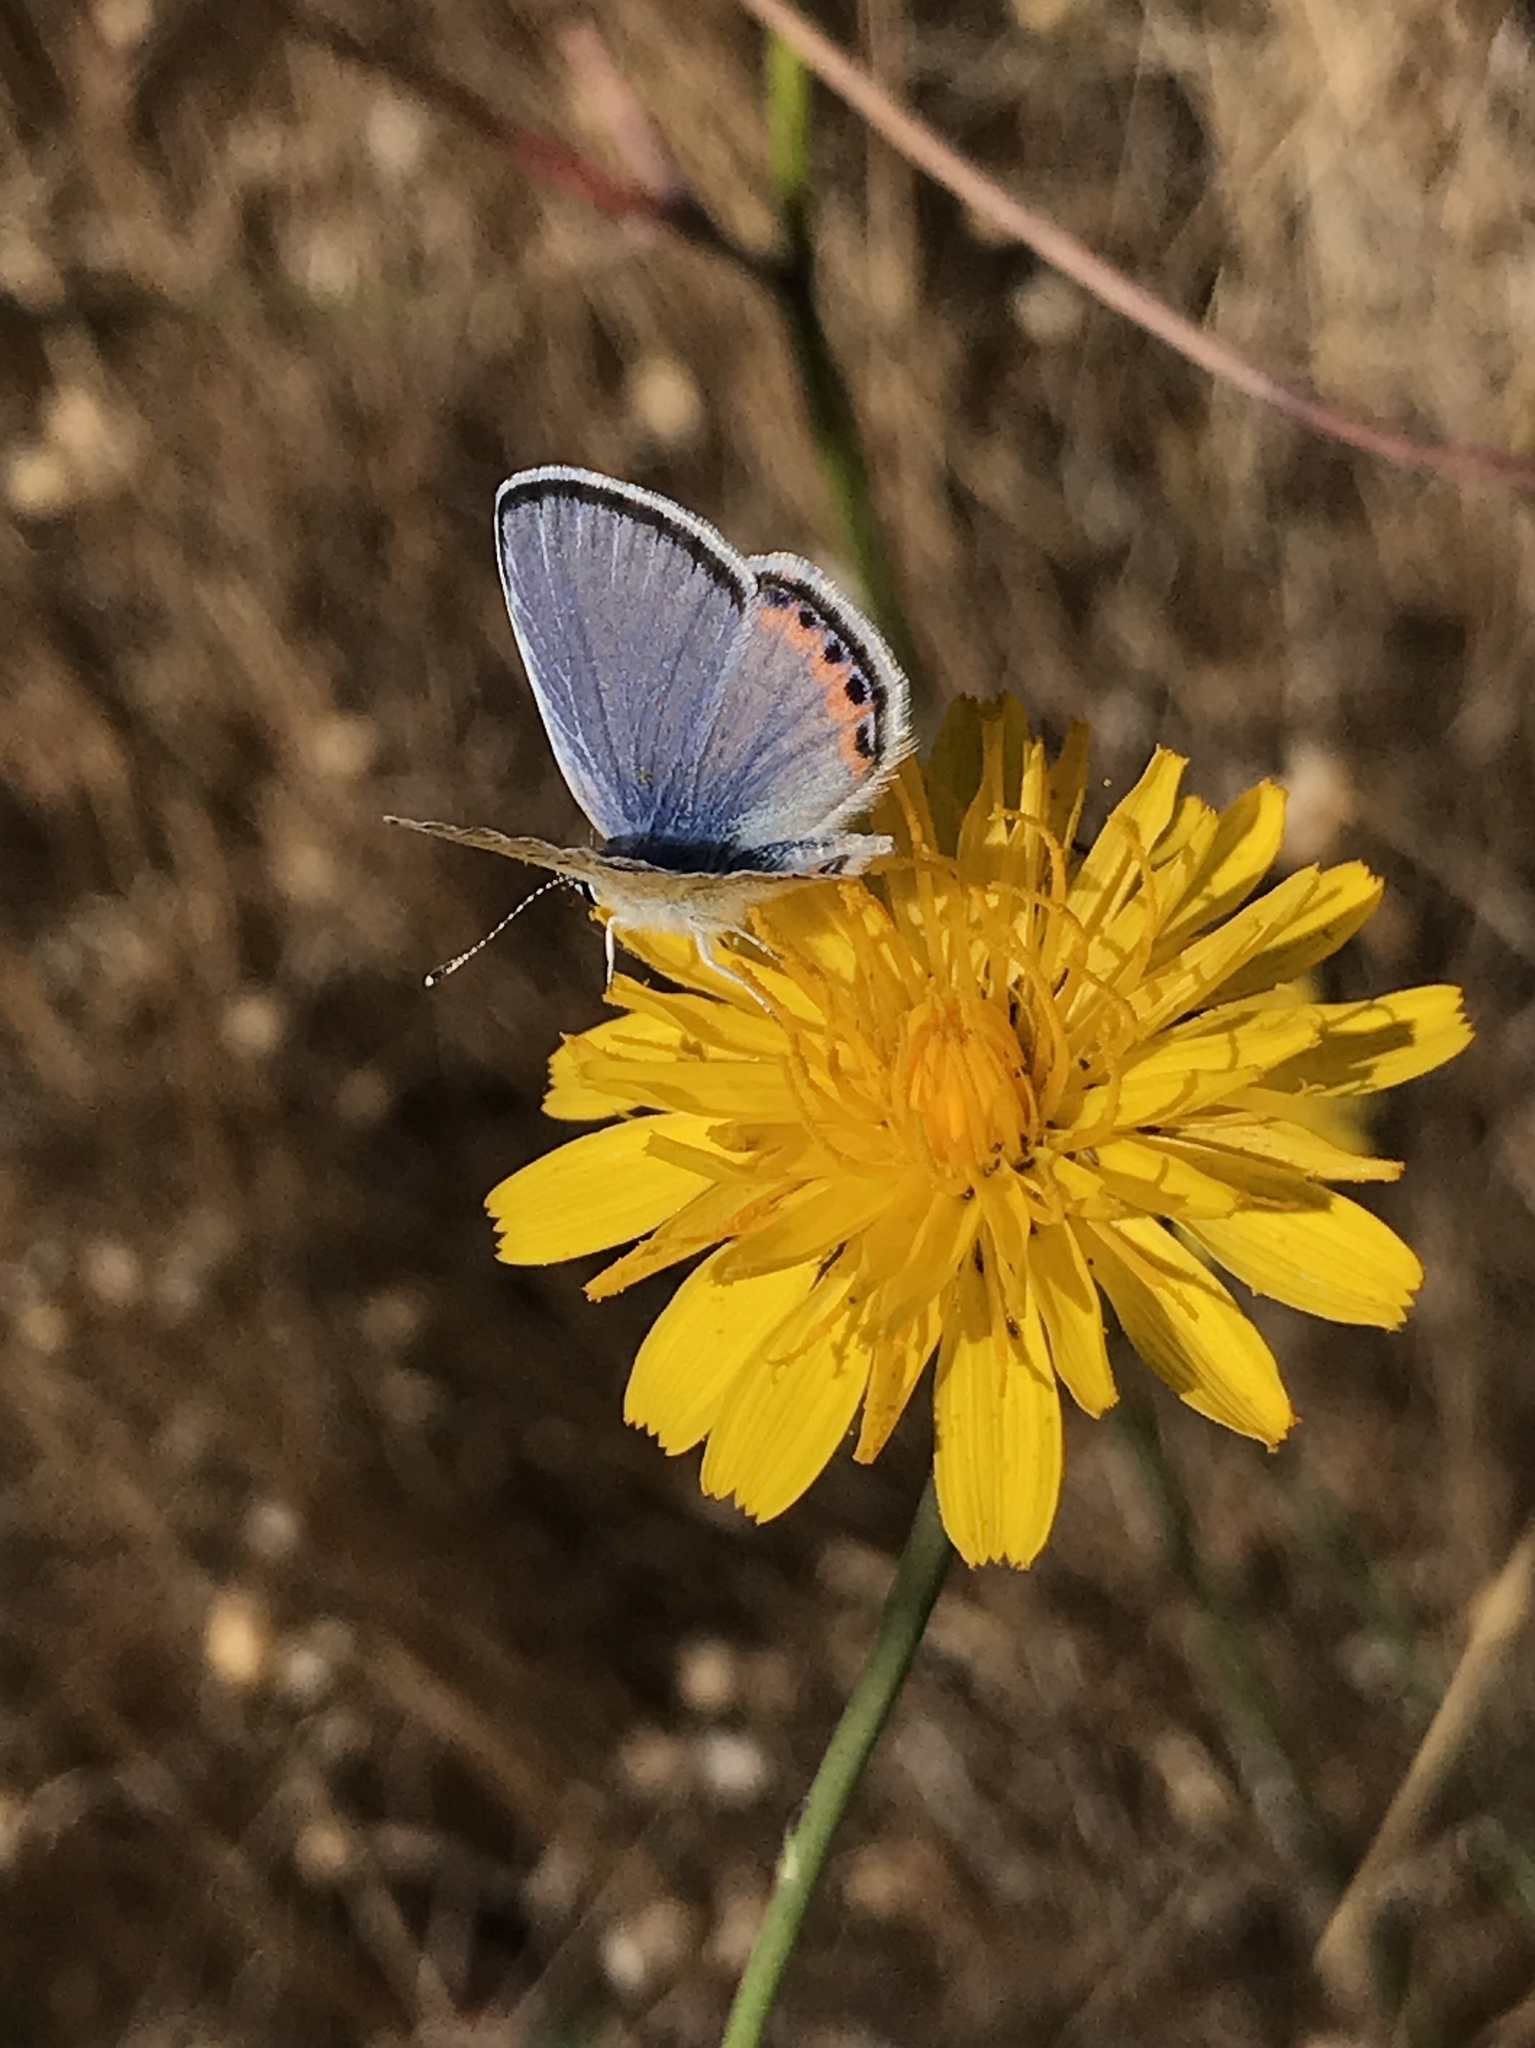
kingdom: Animalia
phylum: Arthropoda
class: Insecta
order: Lepidoptera
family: Lycaenidae
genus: Icaricia
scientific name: Icaricia acmon
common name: Acmon blue
